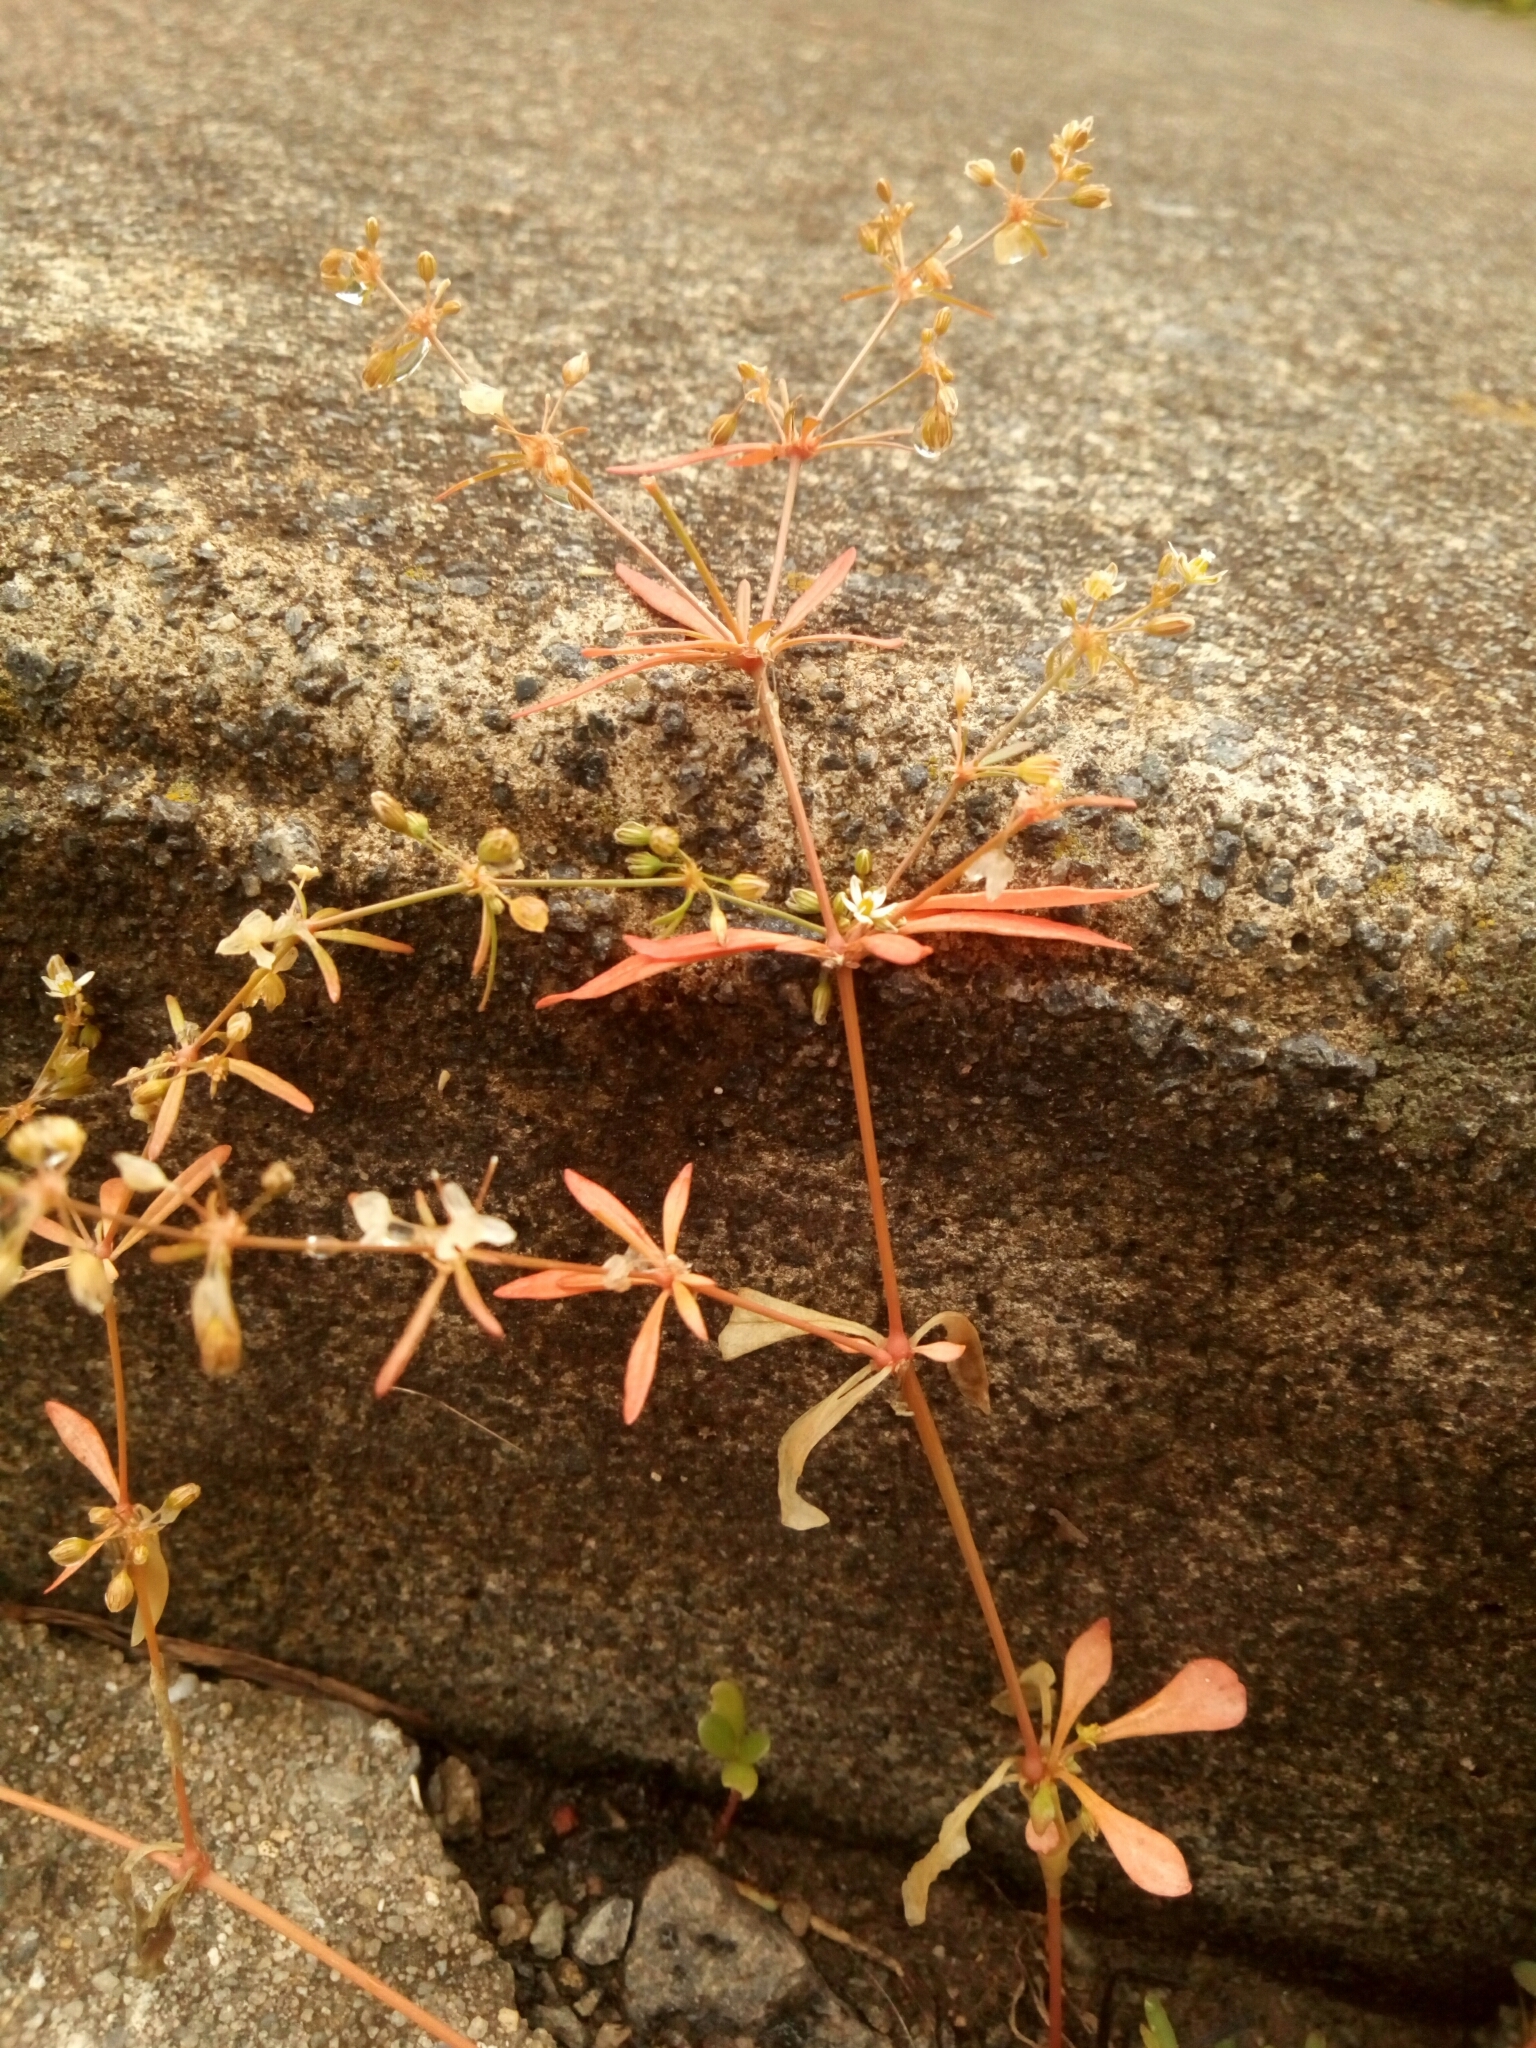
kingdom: Plantae
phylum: Tracheophyta
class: Magnoliopsida
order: Caryophyllales
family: Molluginaceae
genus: Mollugo
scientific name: Mollugo verticillata
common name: Green carpetweed
